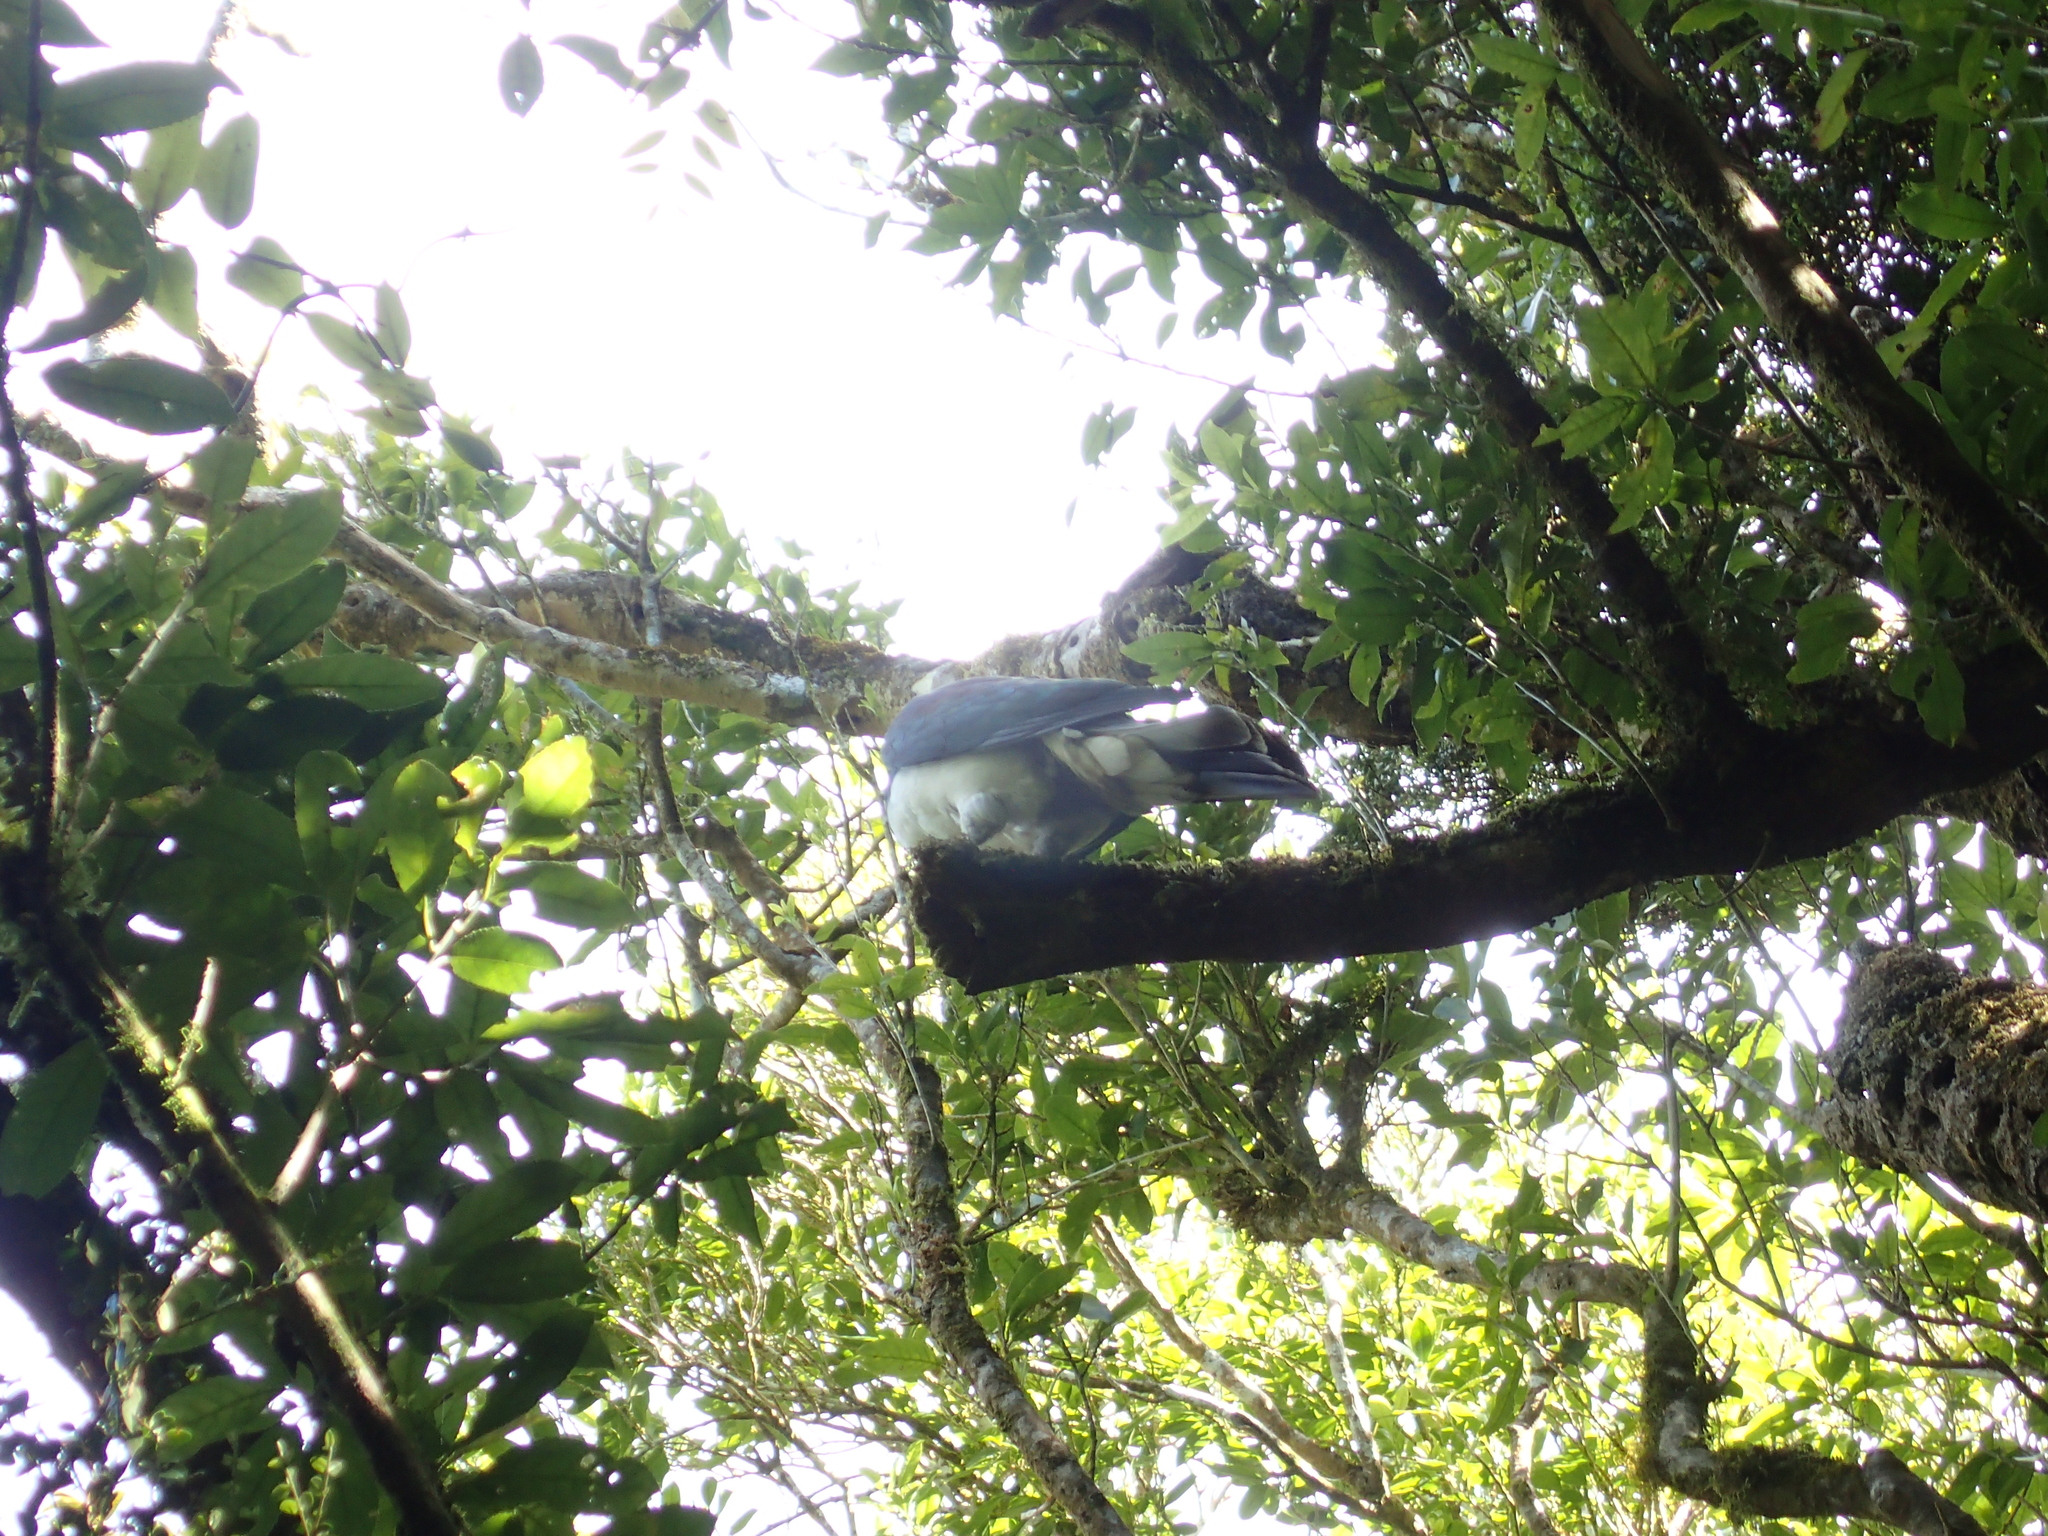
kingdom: Animalia
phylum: Chordata
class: Aves
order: Columbiformes
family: Columbidae
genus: Hemiphaga
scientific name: Hemiphaga novaeseelandiae
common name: New zealand pigeon
